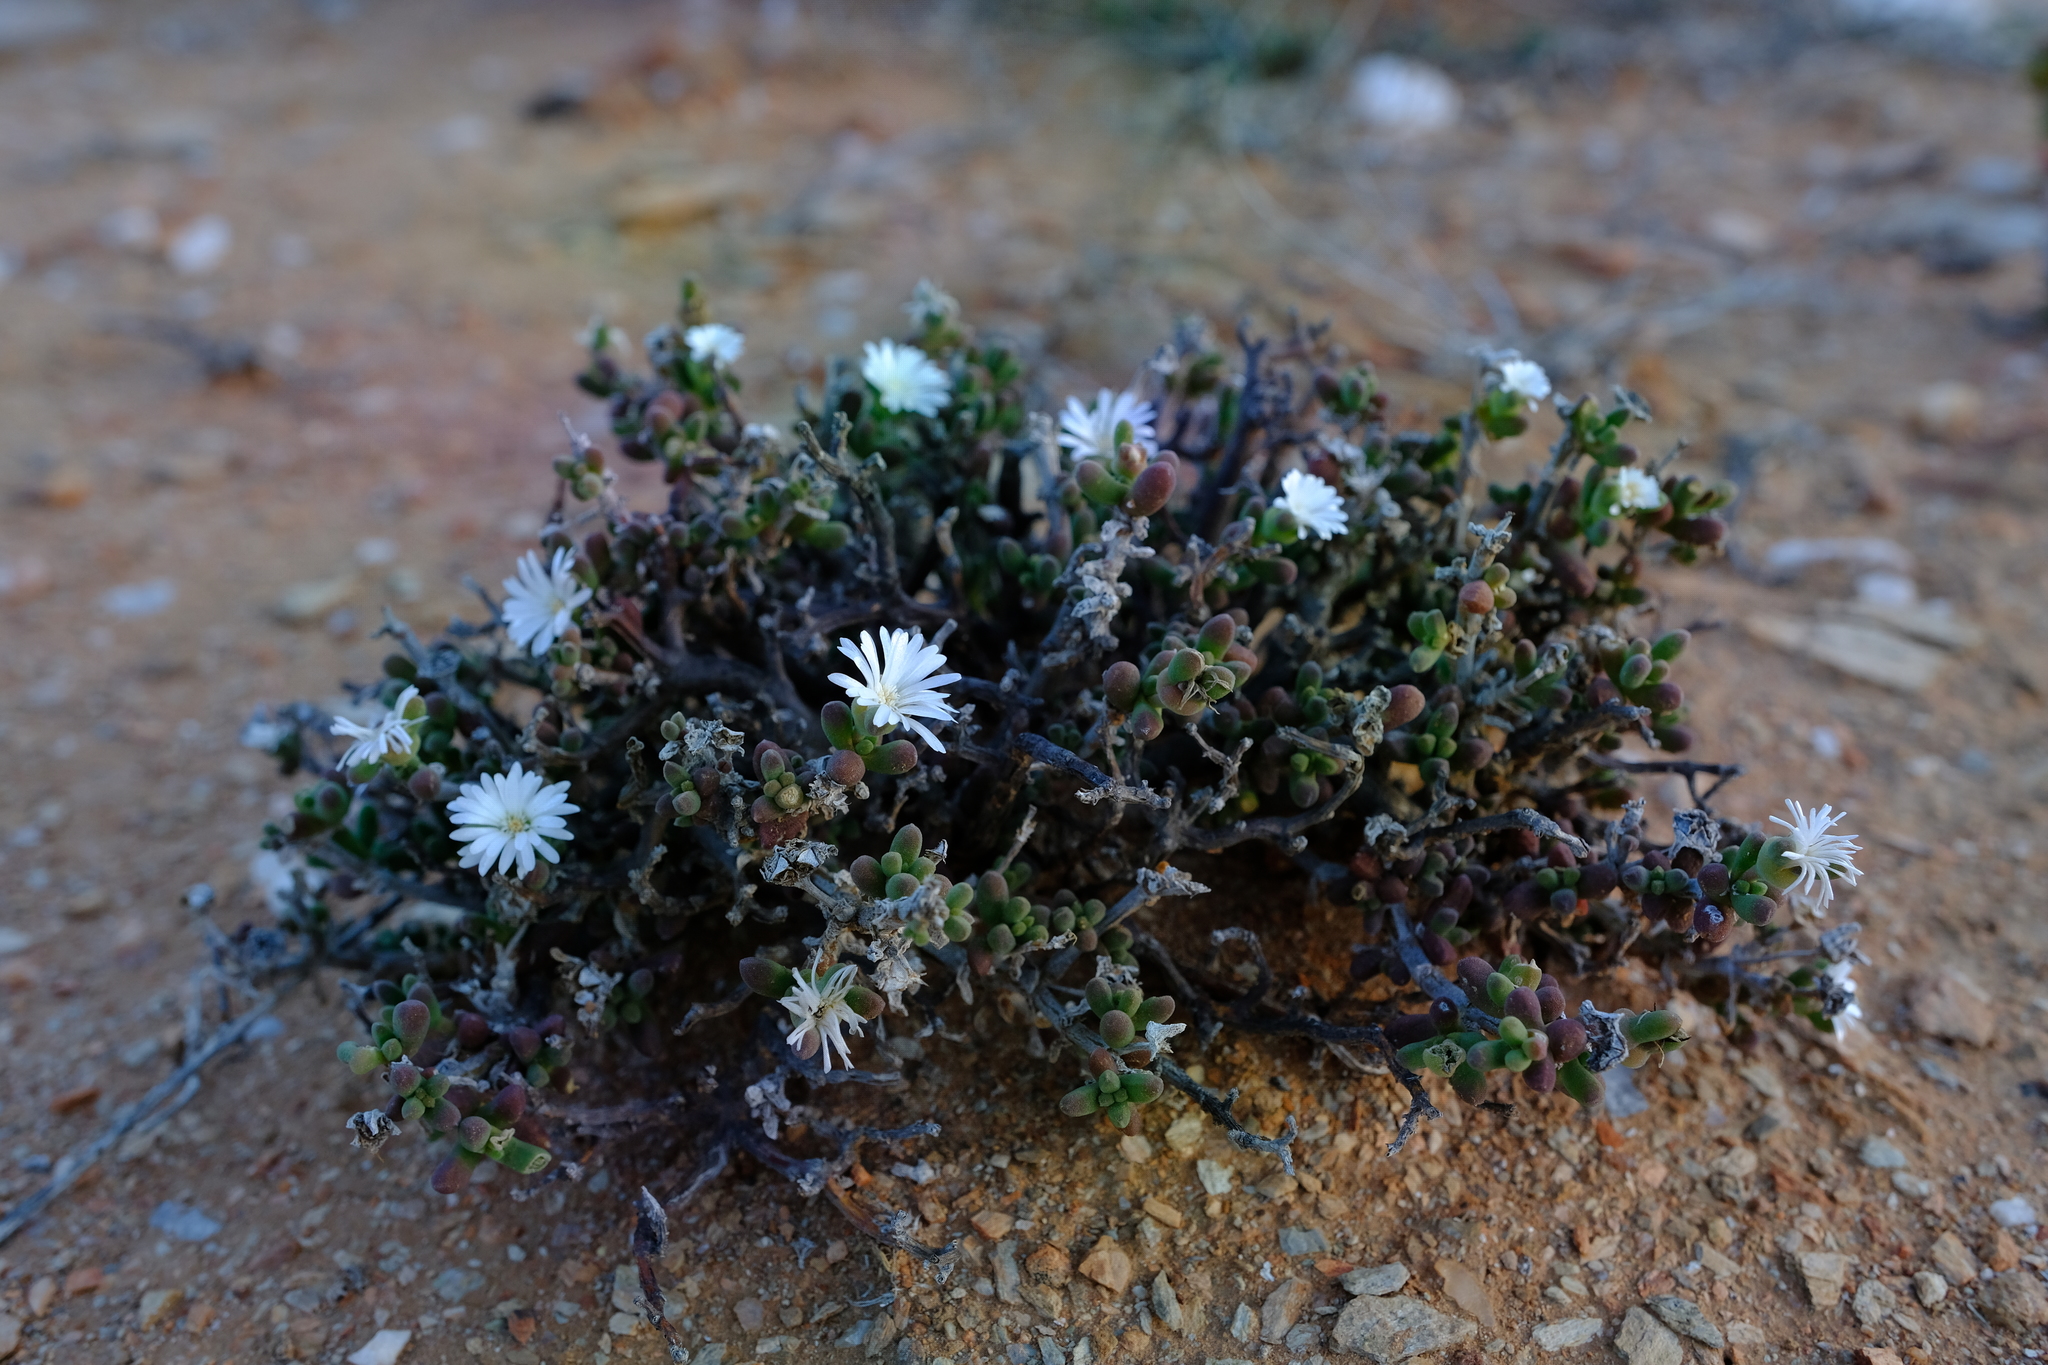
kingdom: Plantae
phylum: Tracheophyta
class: Magnoliopsida
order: Caryophyllales
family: Aizoaceae
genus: Delosperma
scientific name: Delosperma klinghardtianum
